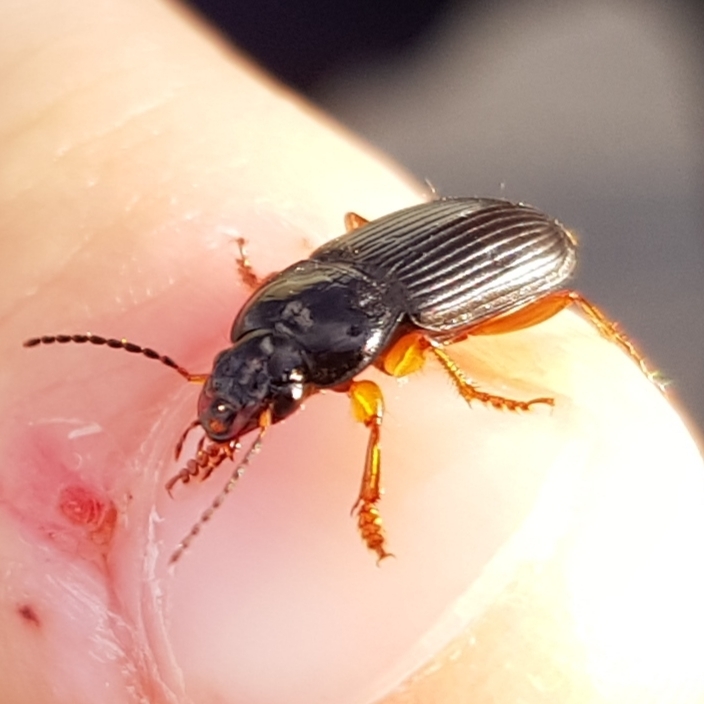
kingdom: Animalia
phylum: Arthropoda
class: Insecta
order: Coleoptera
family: Carabidae
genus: Anisodactylus
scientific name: Anisodactylus binotatus
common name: Two-marked harp ground beetle
